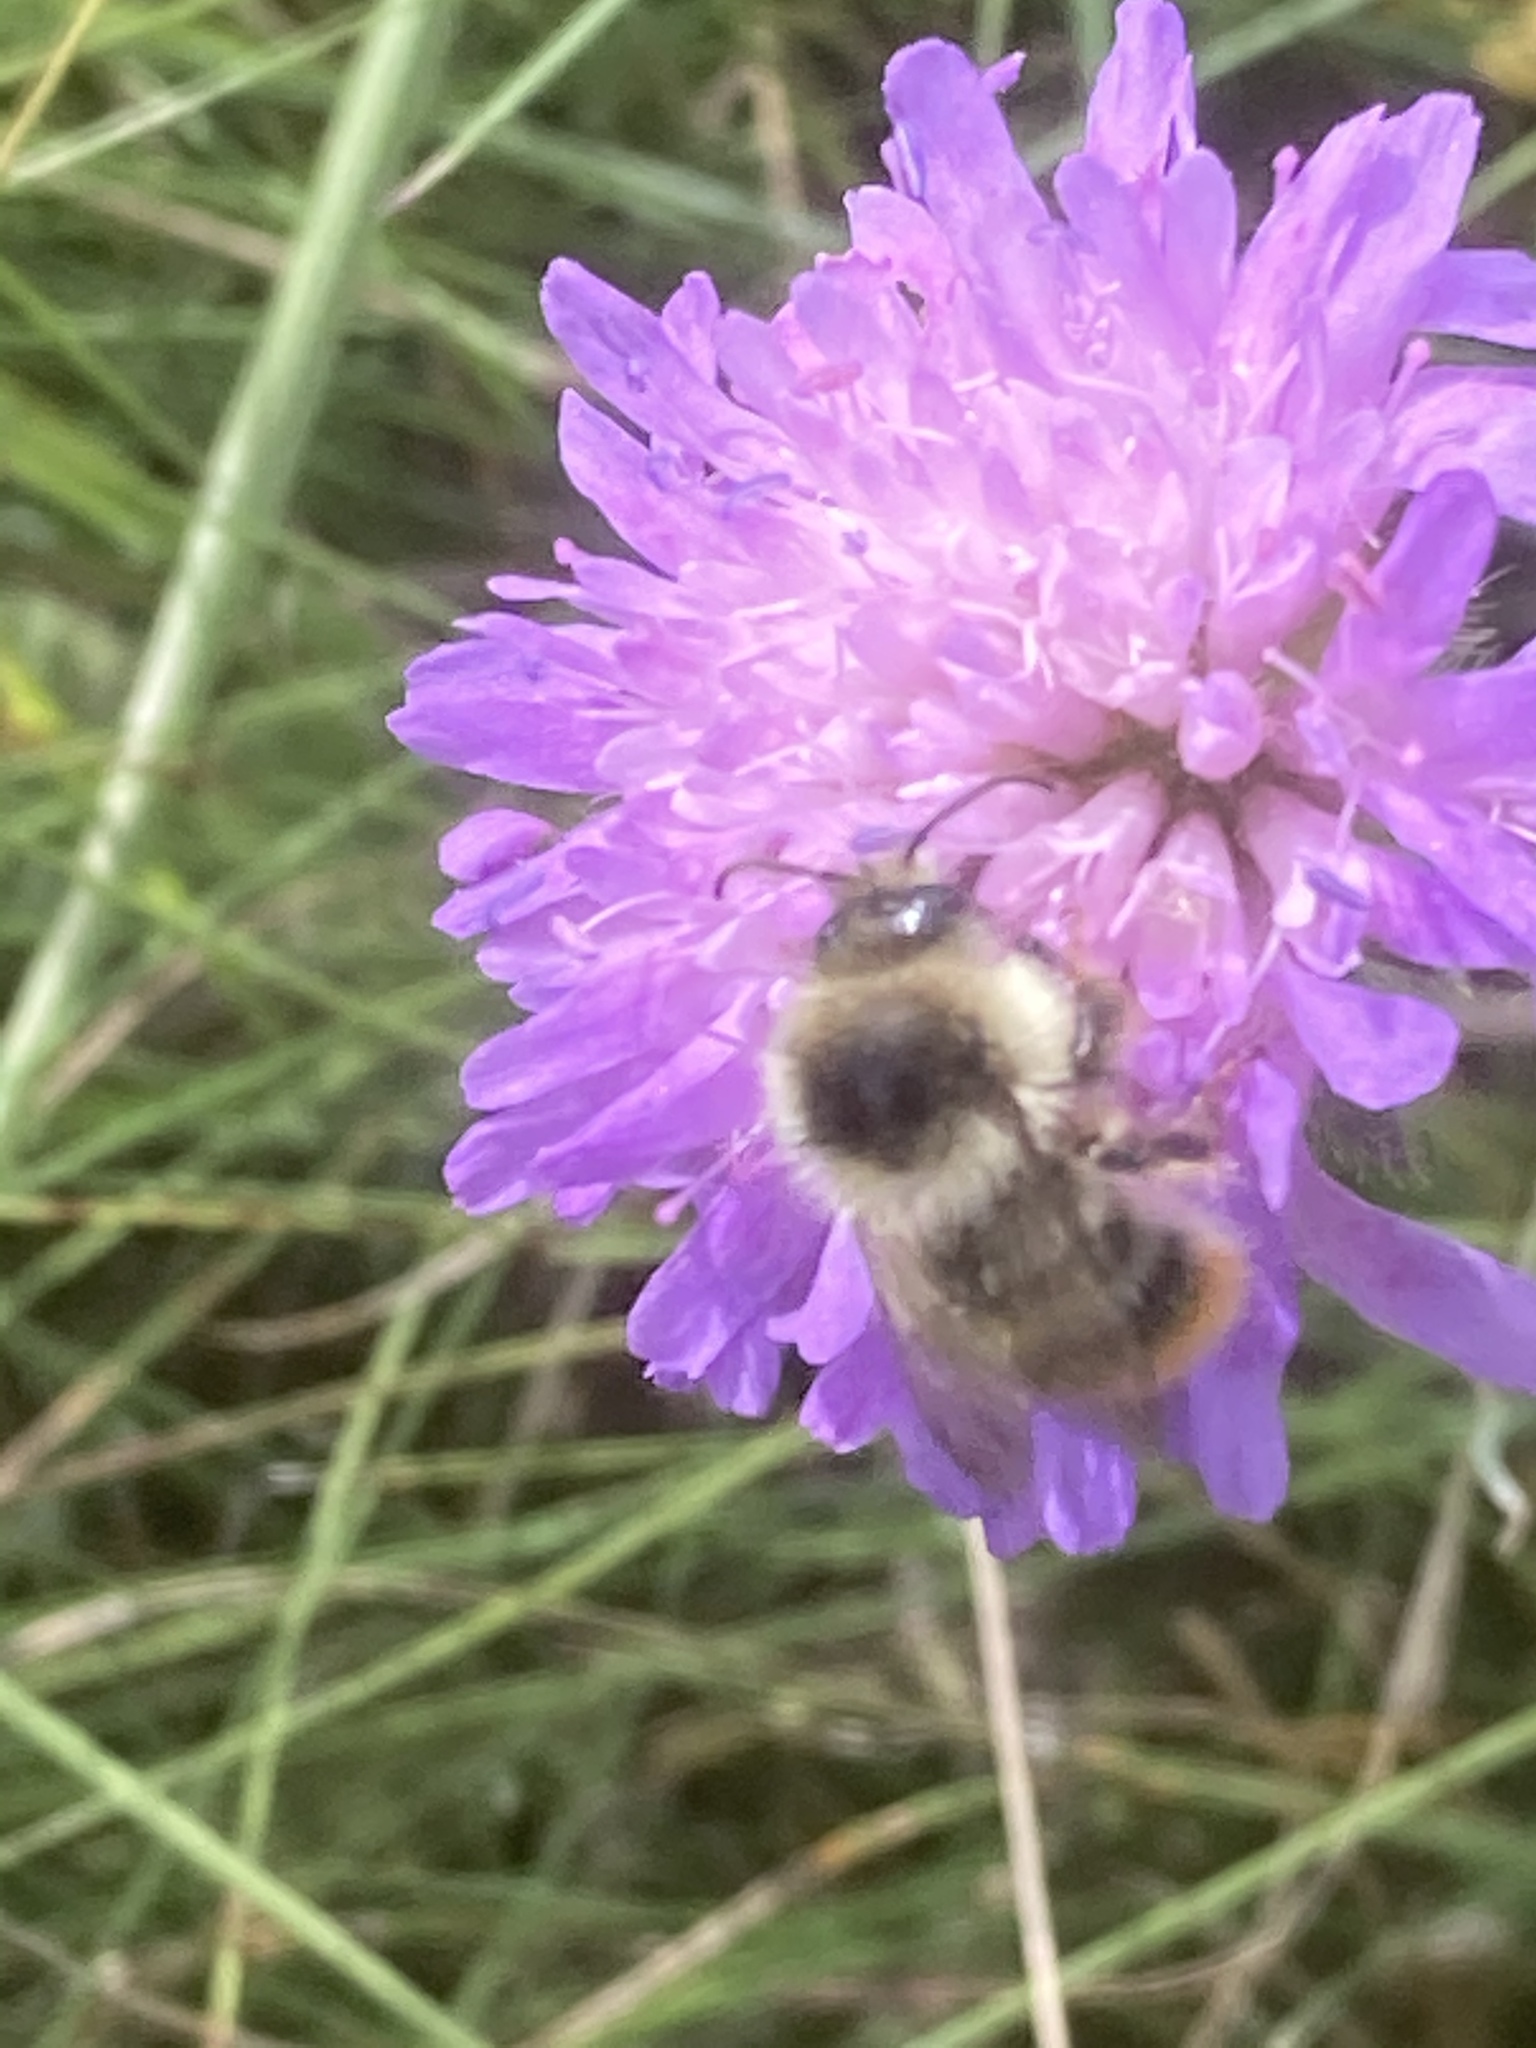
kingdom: Animalia
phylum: Arthropoda
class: Insecta
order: Hymenoptera
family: Apidae
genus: Bombus
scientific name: Bombus sylvarum
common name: Shrill carder bee
